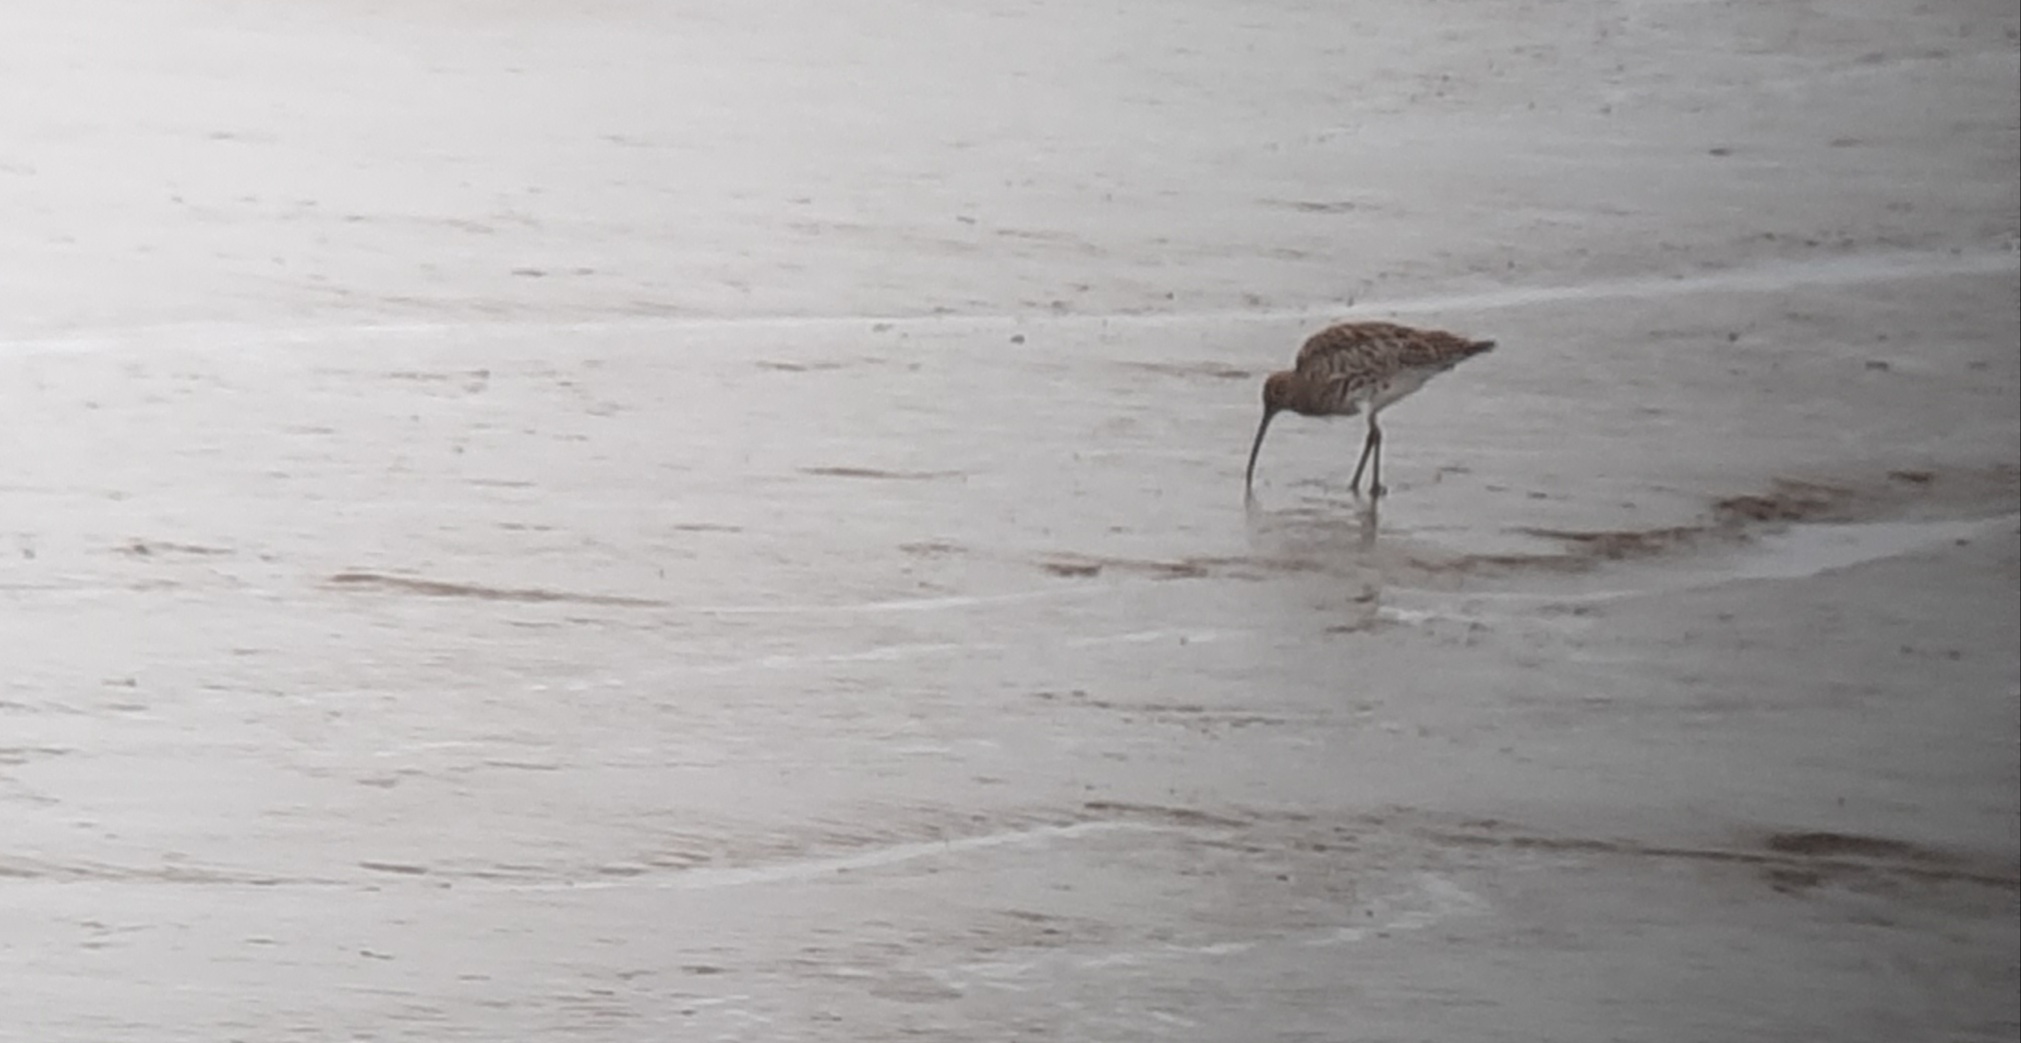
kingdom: Animalia
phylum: Chordata
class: Aves
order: Charadriiformes
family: Scolopacidae
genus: Numenius
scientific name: Numenius arquata
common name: Eurasian curlew
